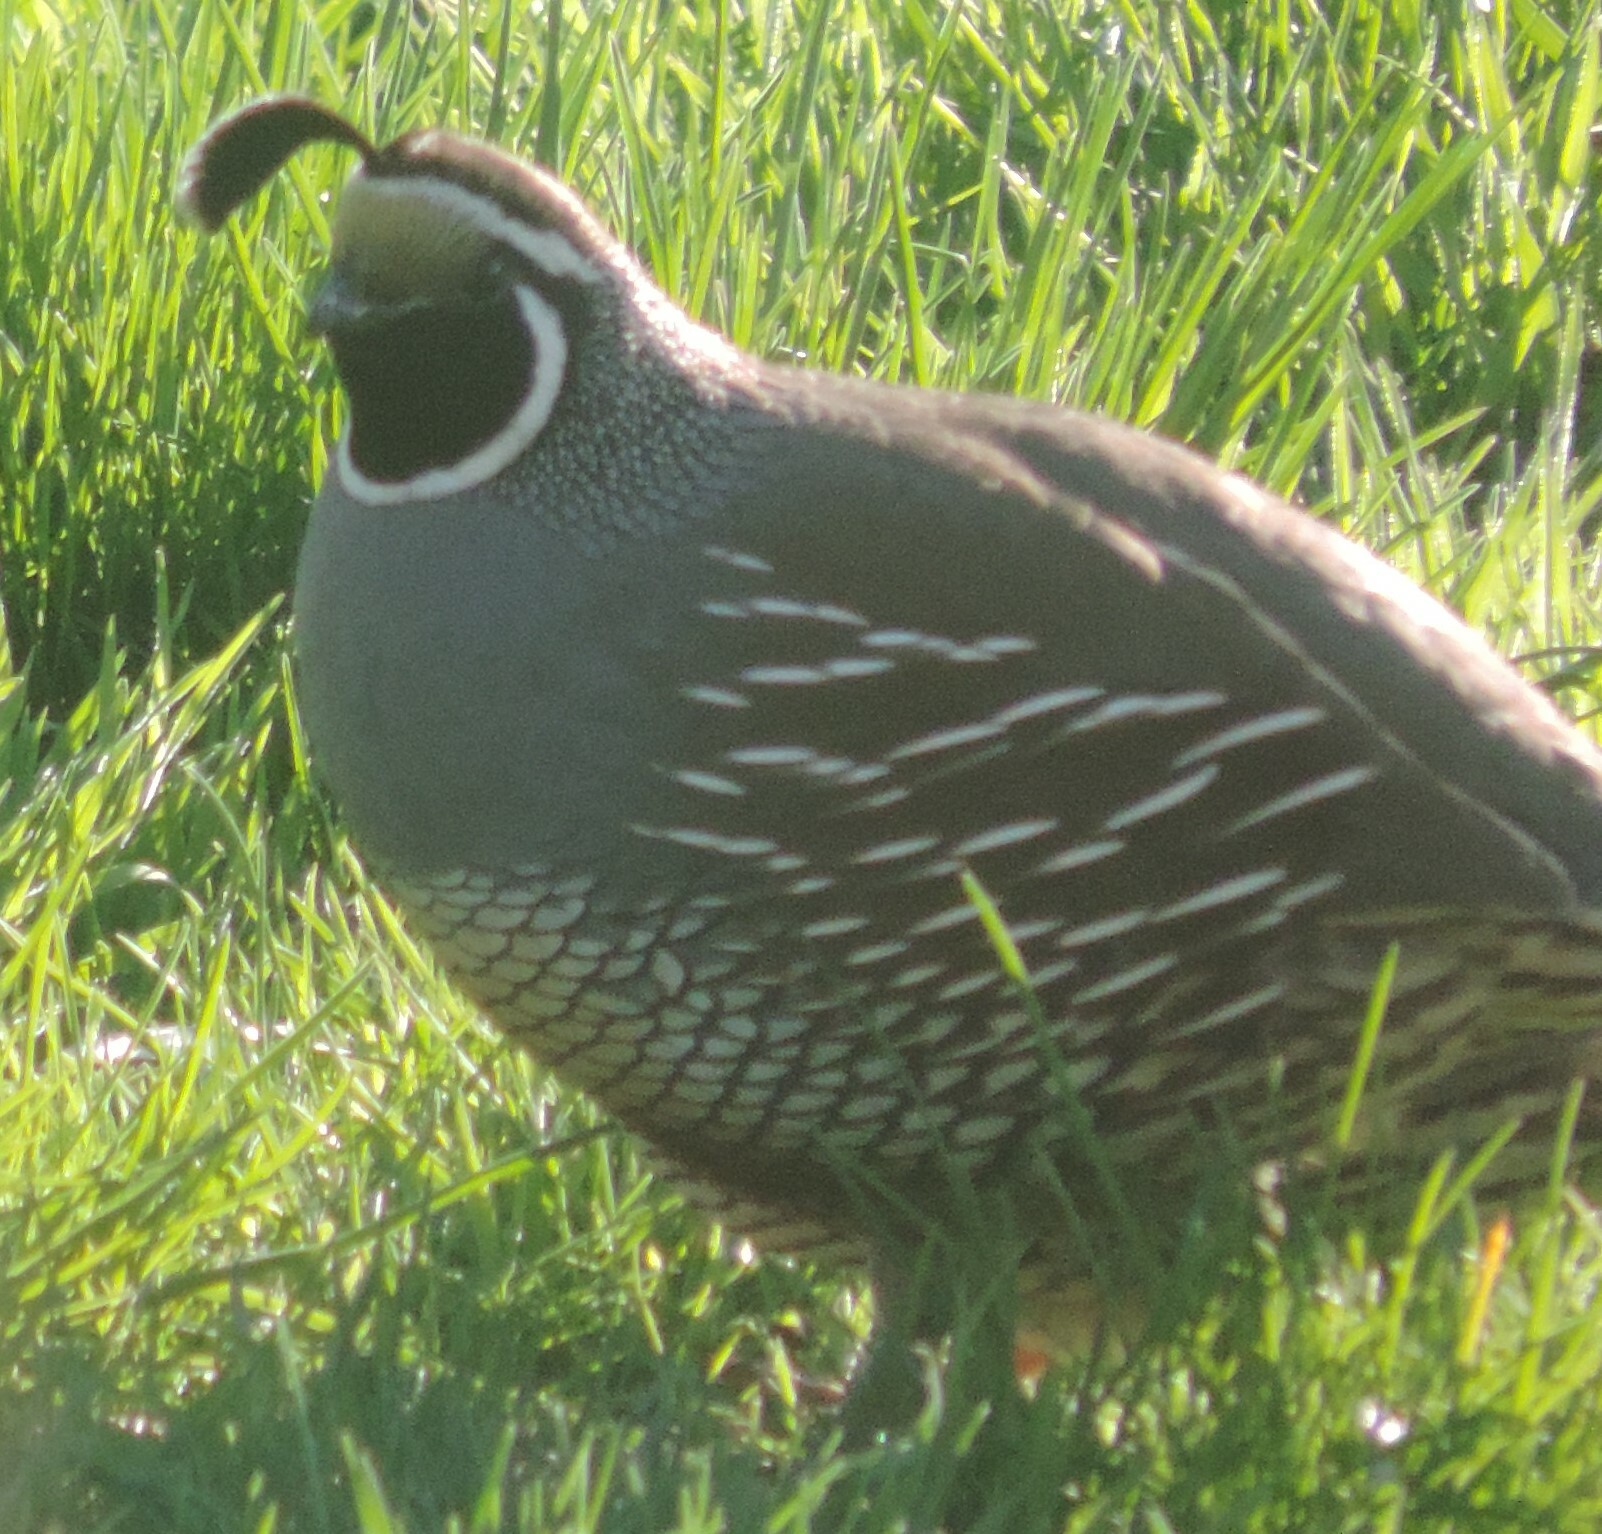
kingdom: Animalia
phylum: Chordata
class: Aves
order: Galliformes
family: Odontophoridae
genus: Callipepla
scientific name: Callipepla californica
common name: California quail
